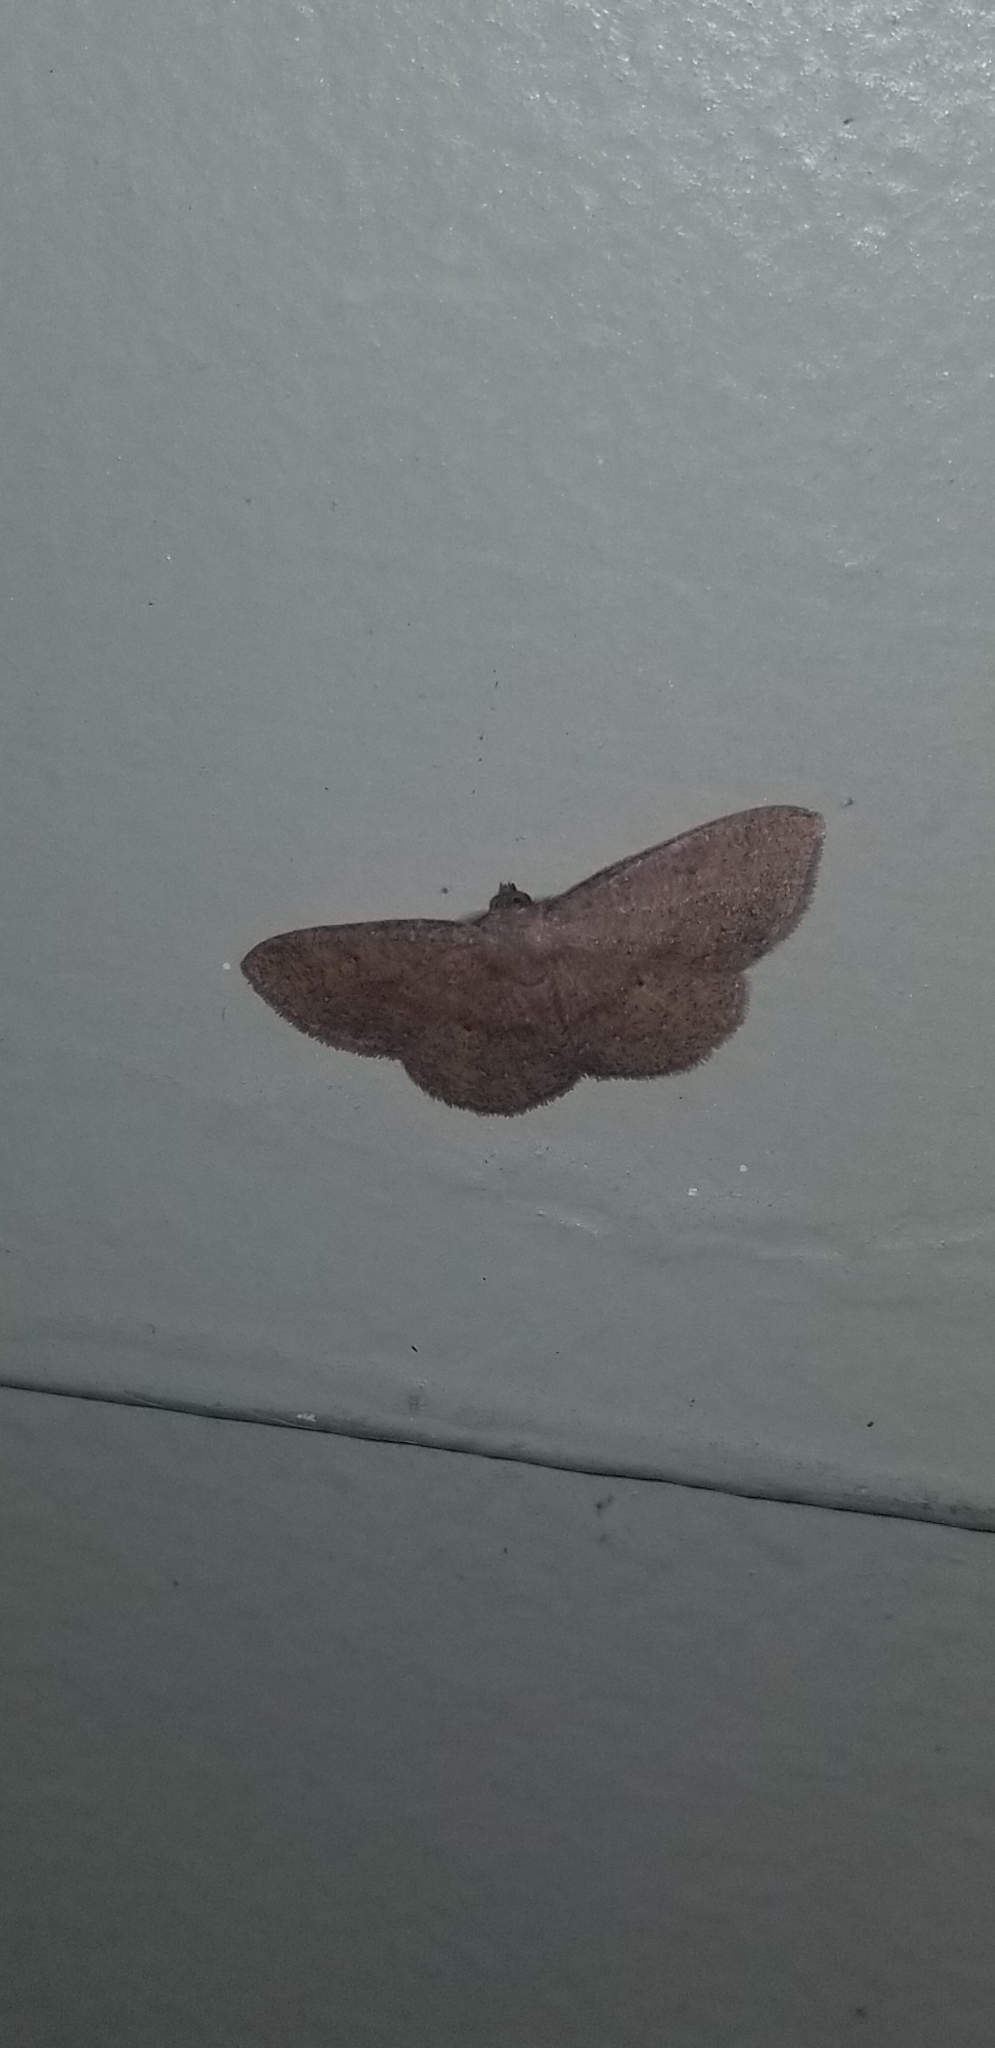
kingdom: Animalia
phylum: Arthropoda
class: Insecta
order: Lepidoptera
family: Geometridae
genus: Ilexia
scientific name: Ilexia intractata
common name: Black-dotted ruddy moth
